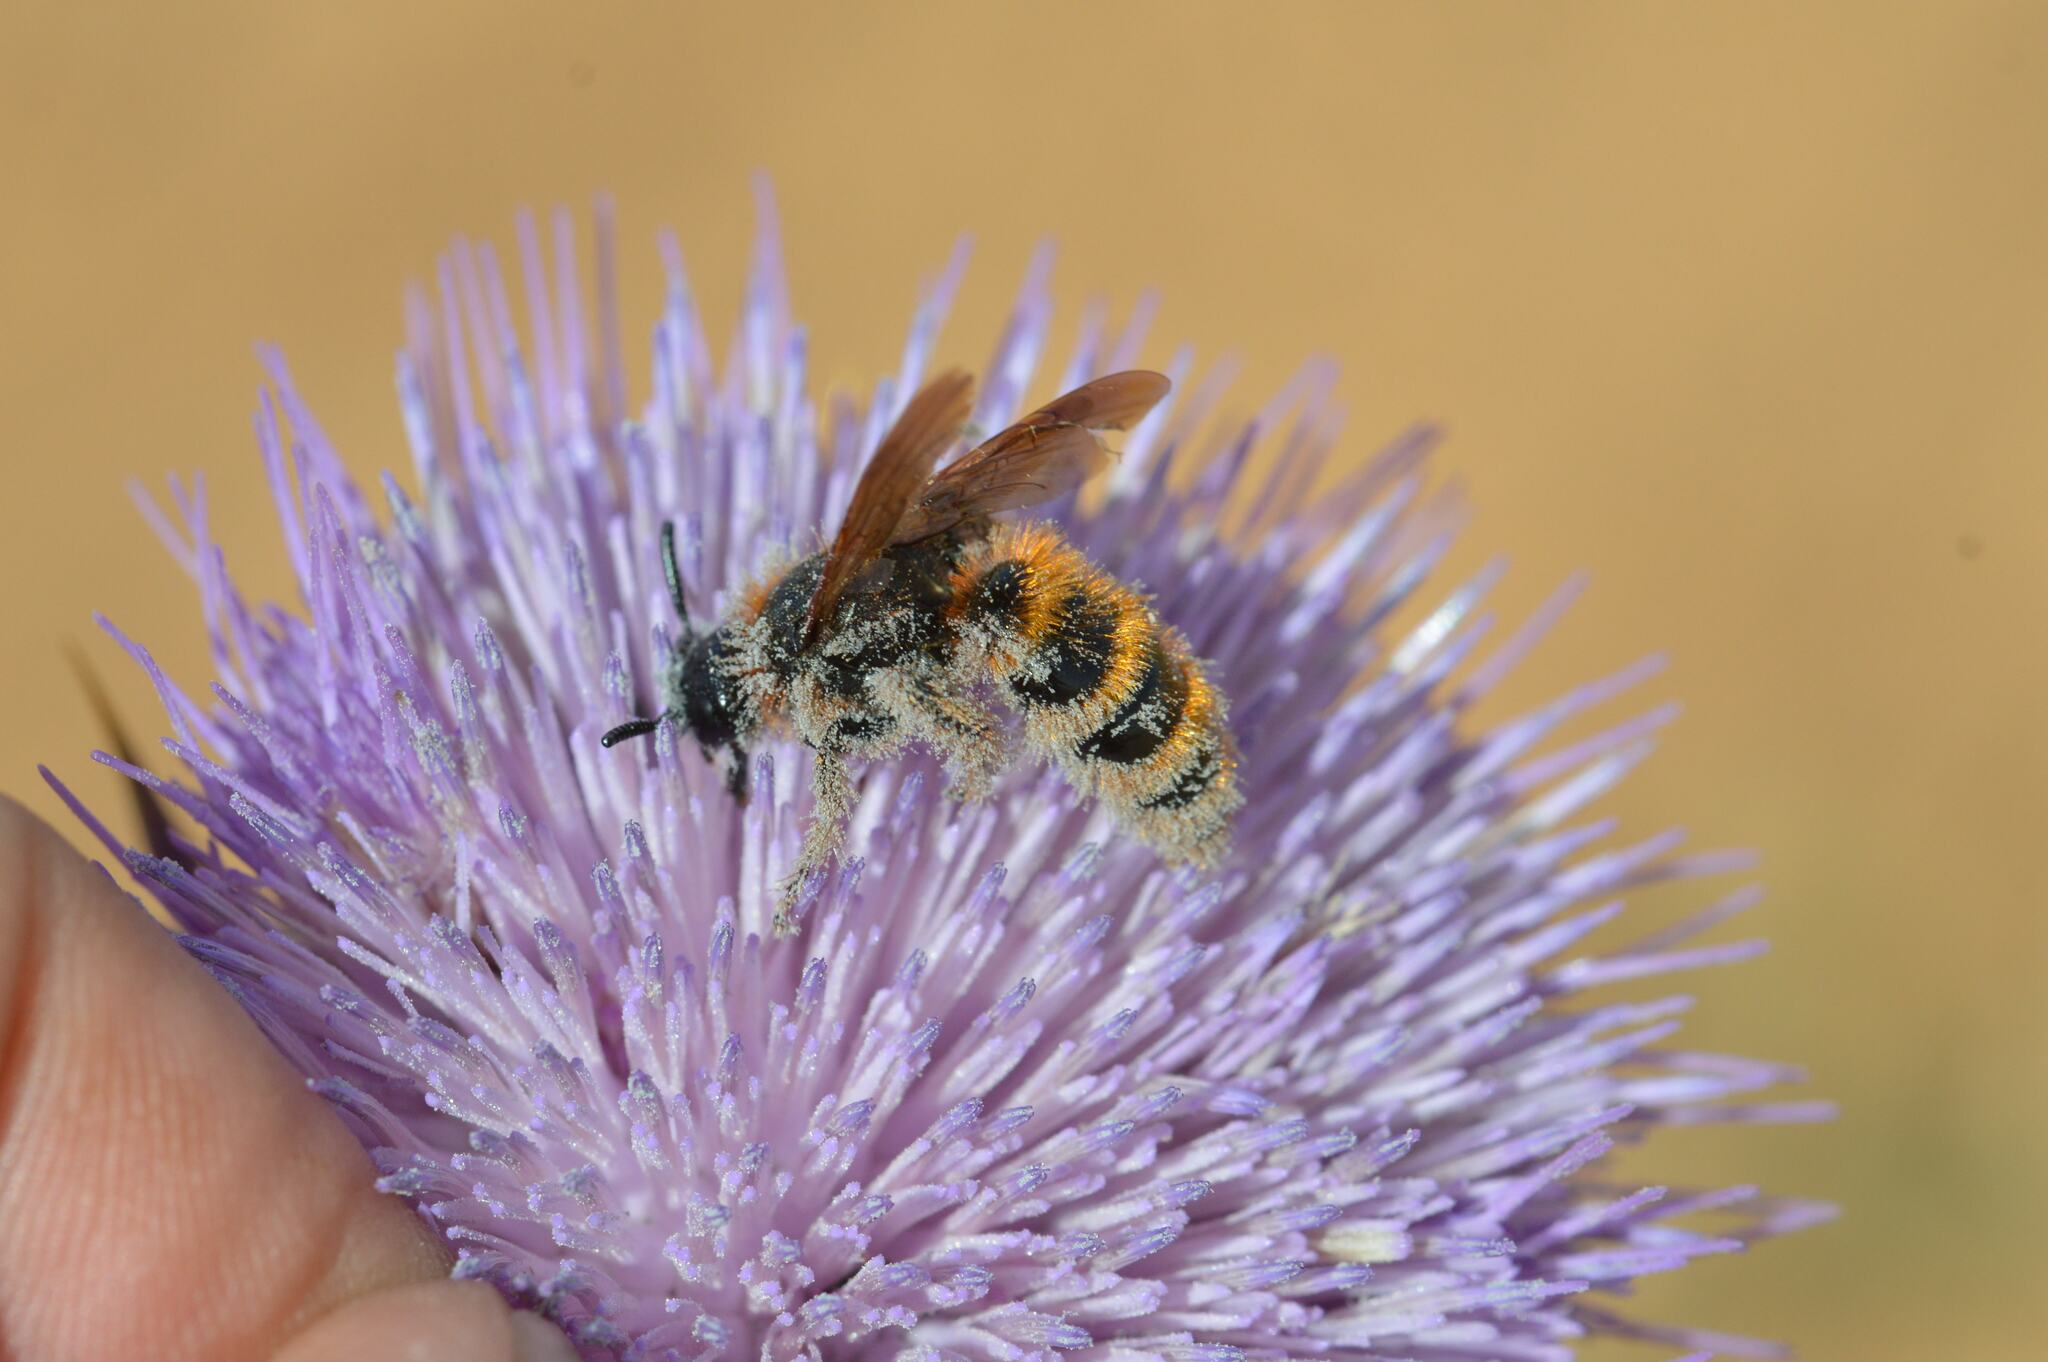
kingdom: Animalia
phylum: Arthropoda
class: Insecta
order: Hymenoptera
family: Scoliidae
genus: Dasyscolia
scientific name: Dasyscolia ciliata
